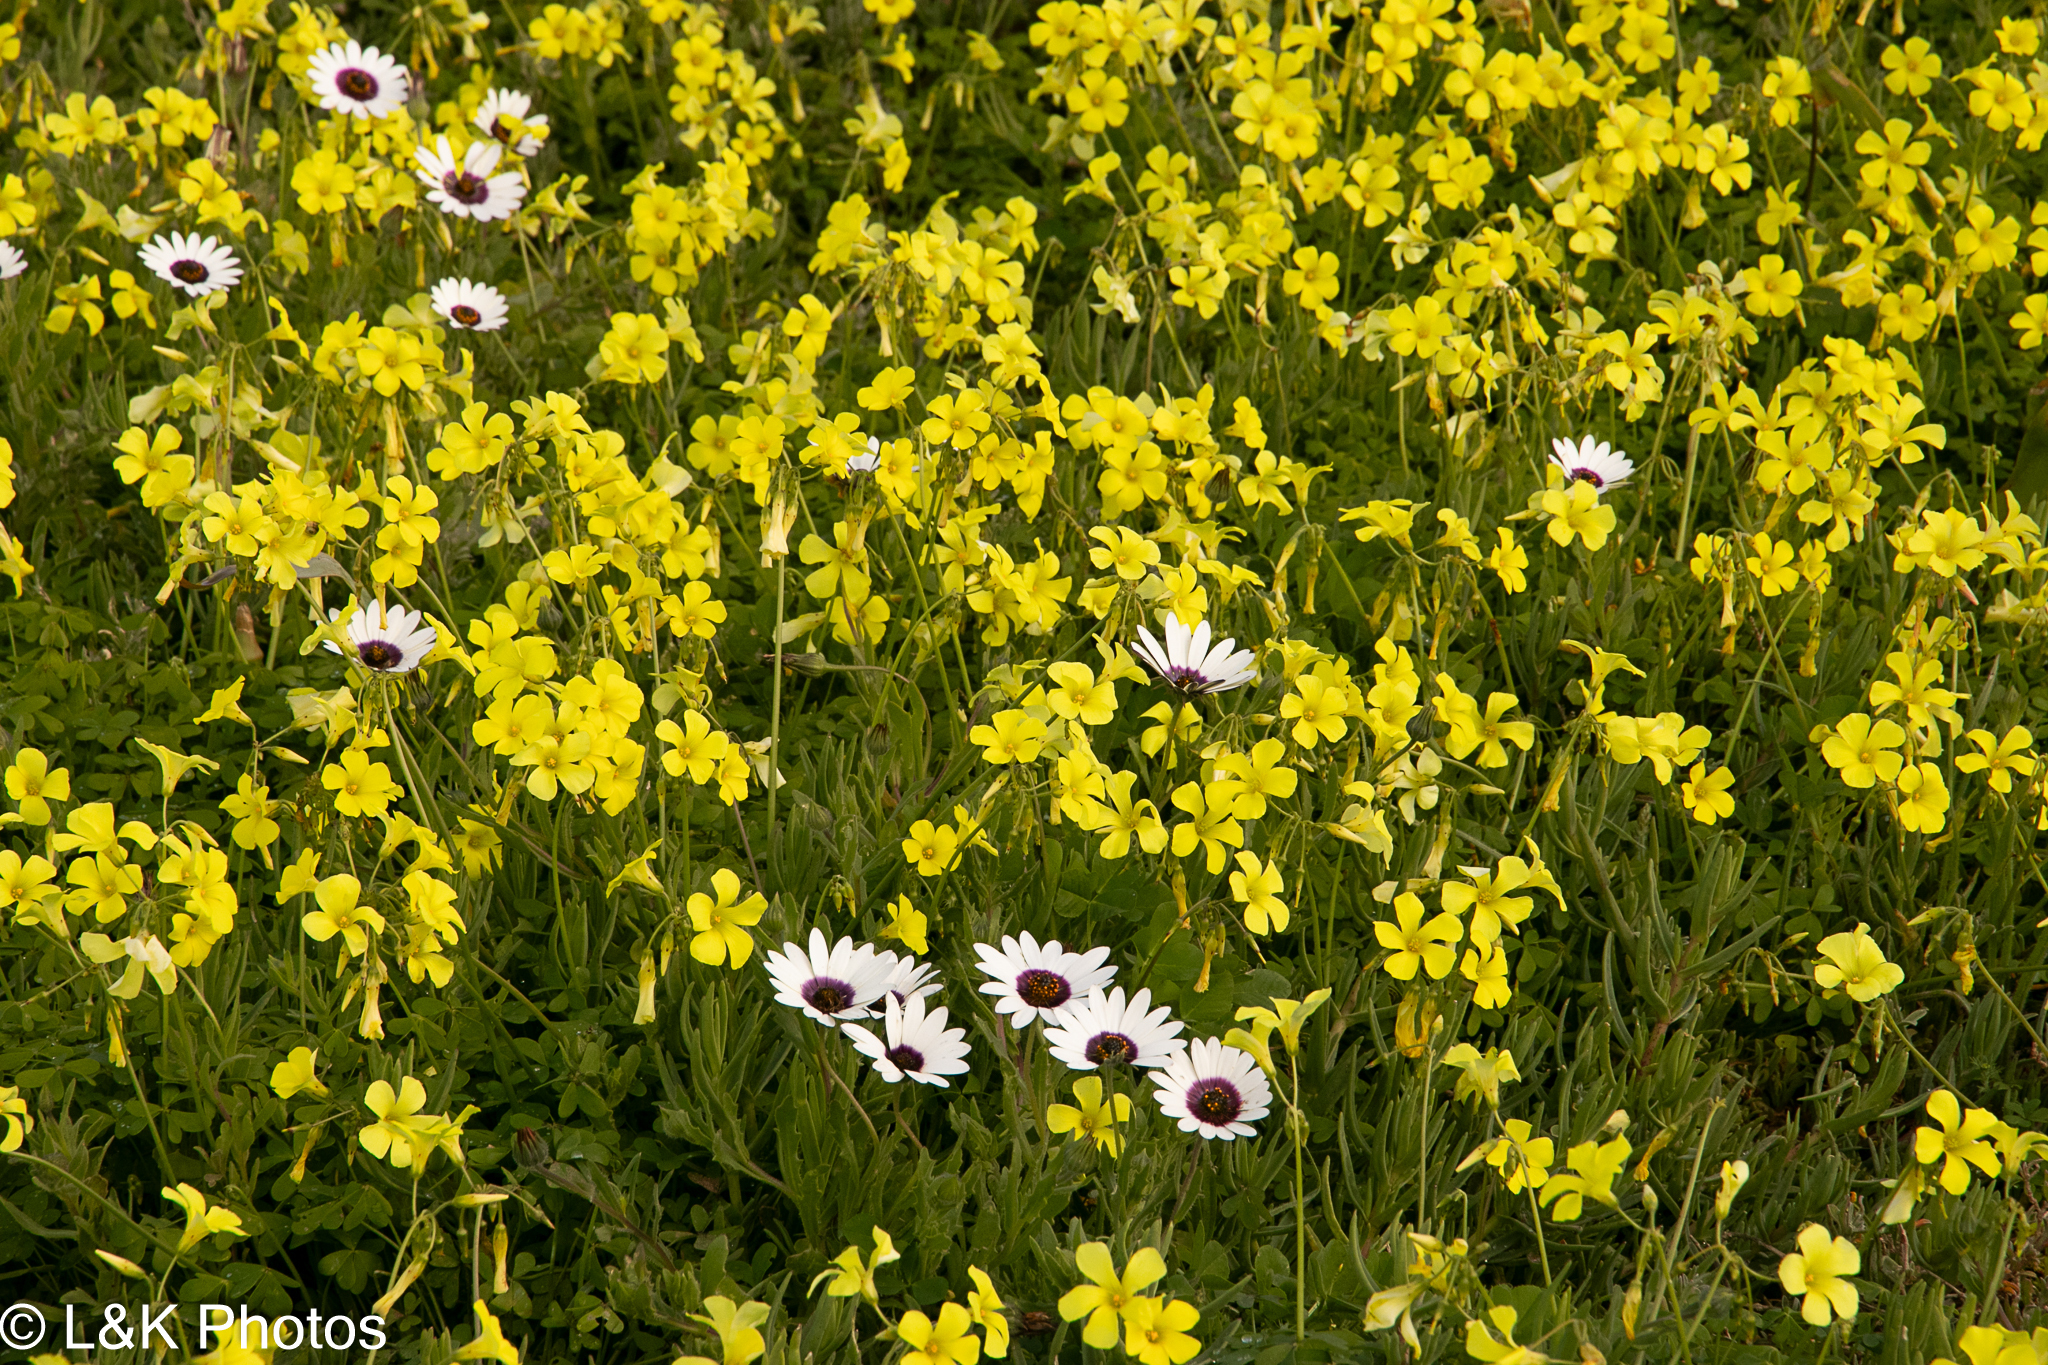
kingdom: Plantae
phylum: Tracheophyta
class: Magnoliopsida
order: Oxalidales
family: Oxalidaceae
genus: Oxalis
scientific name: Oxalis pes-caprae
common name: Bermuda-buttercup
